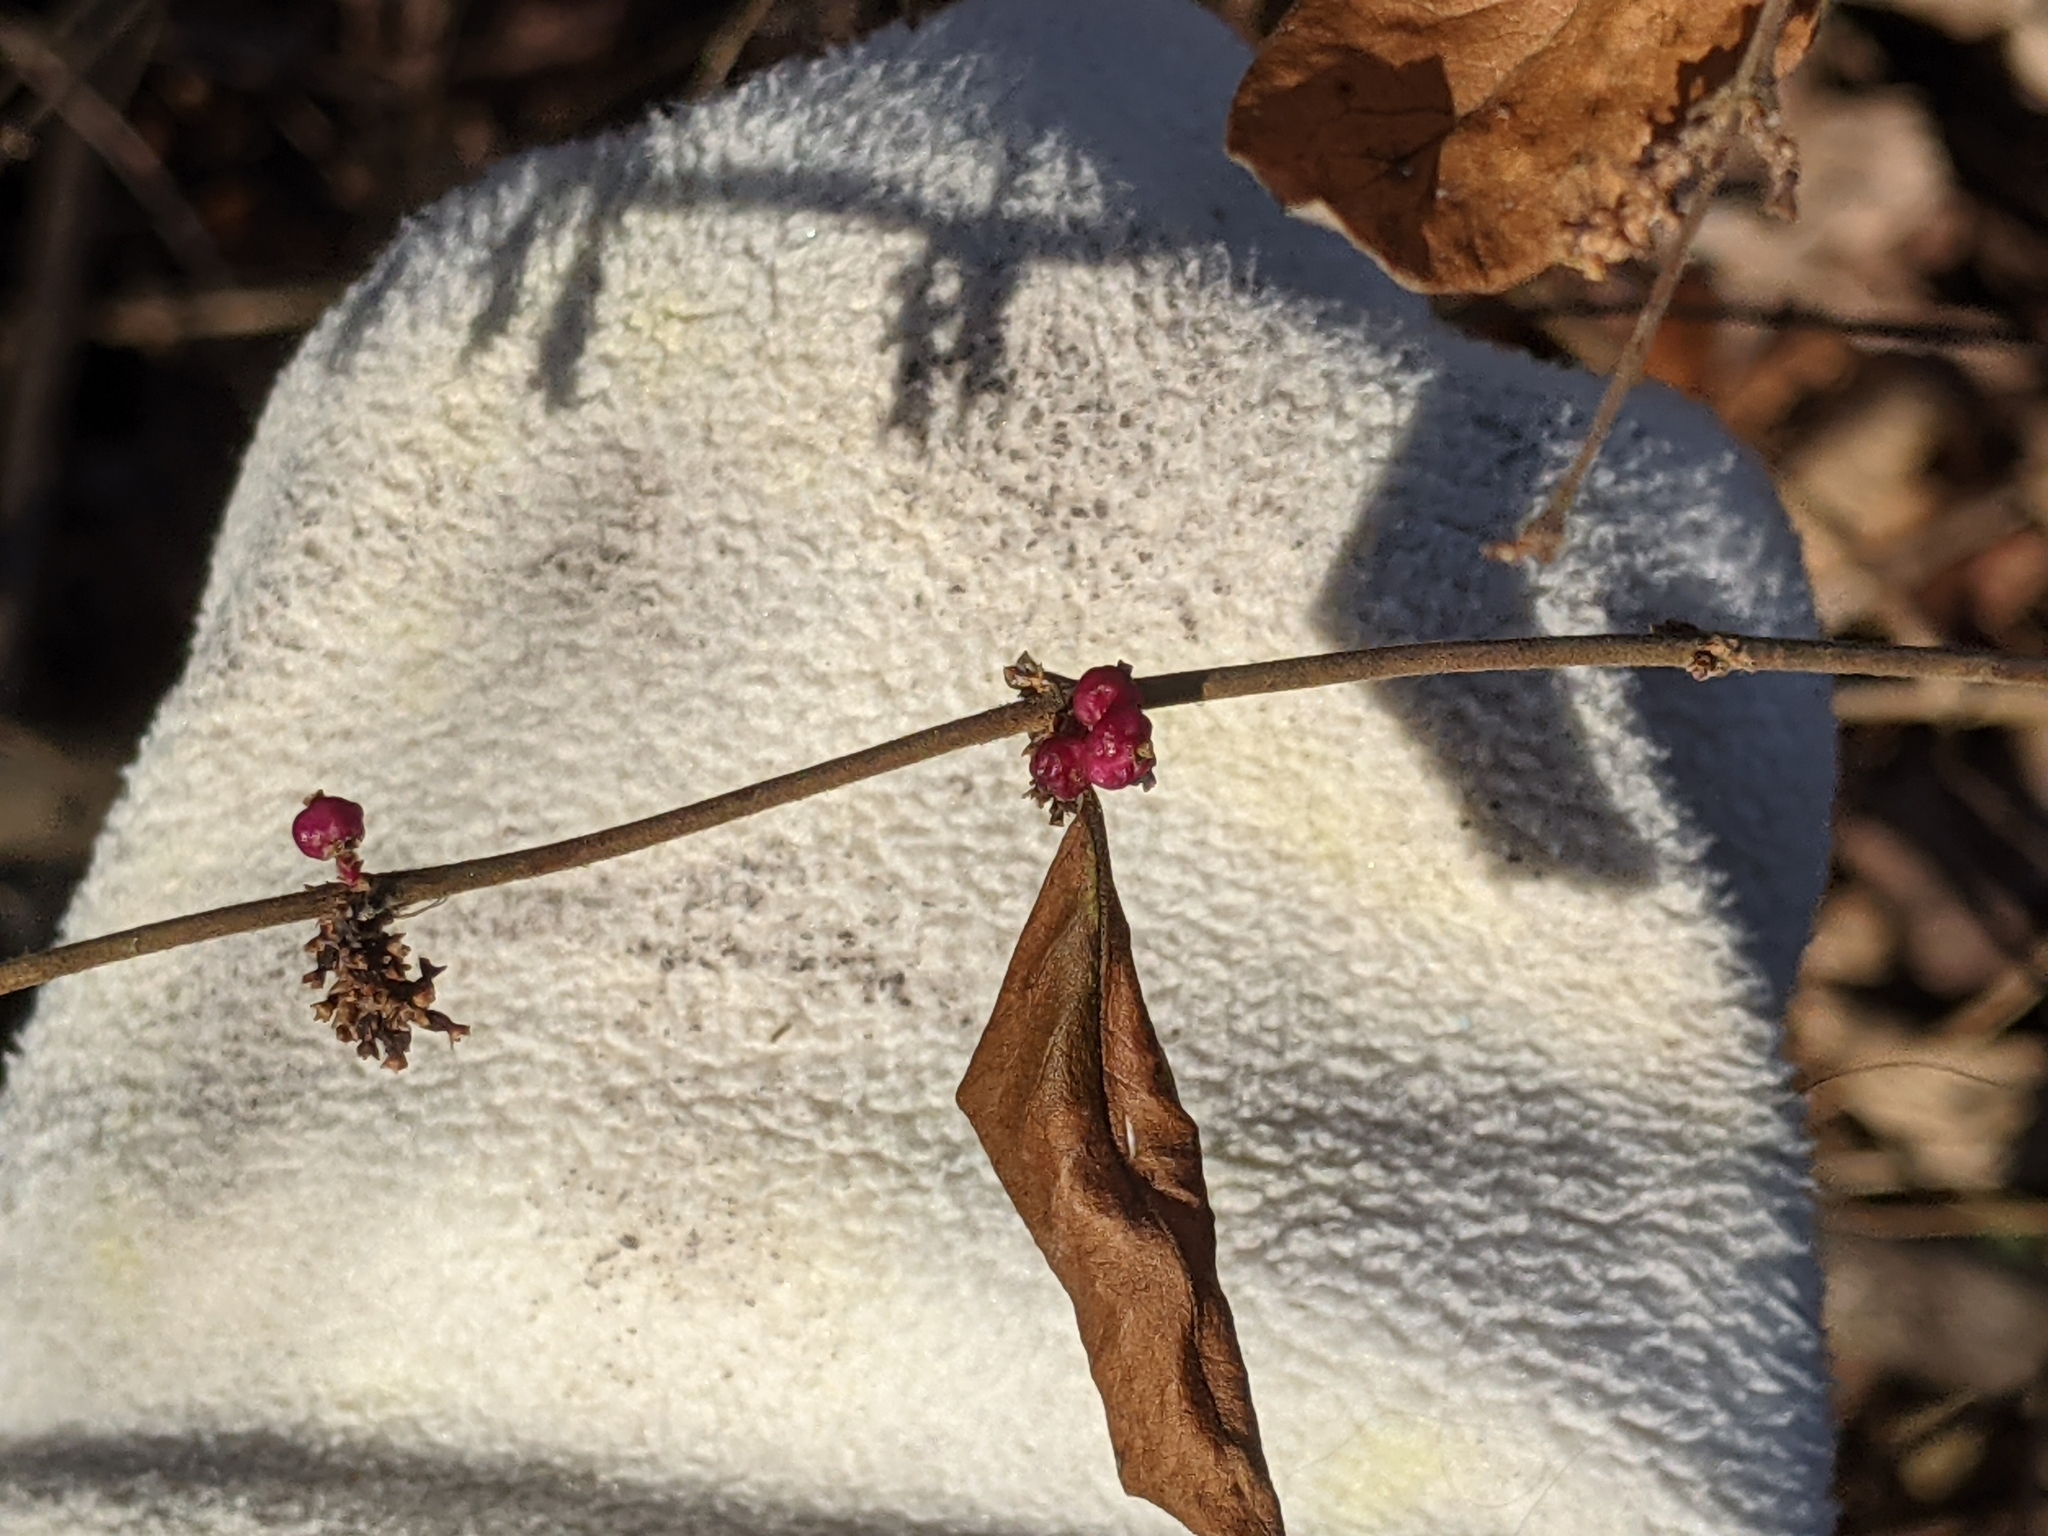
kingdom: Plantae
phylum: Tracheophyta
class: Magnoliopsida
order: Dipsacales
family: Caprifoliaceae
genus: Symphoricarpos
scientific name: Symphoricarpos orbiculatus
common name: Coralberry
